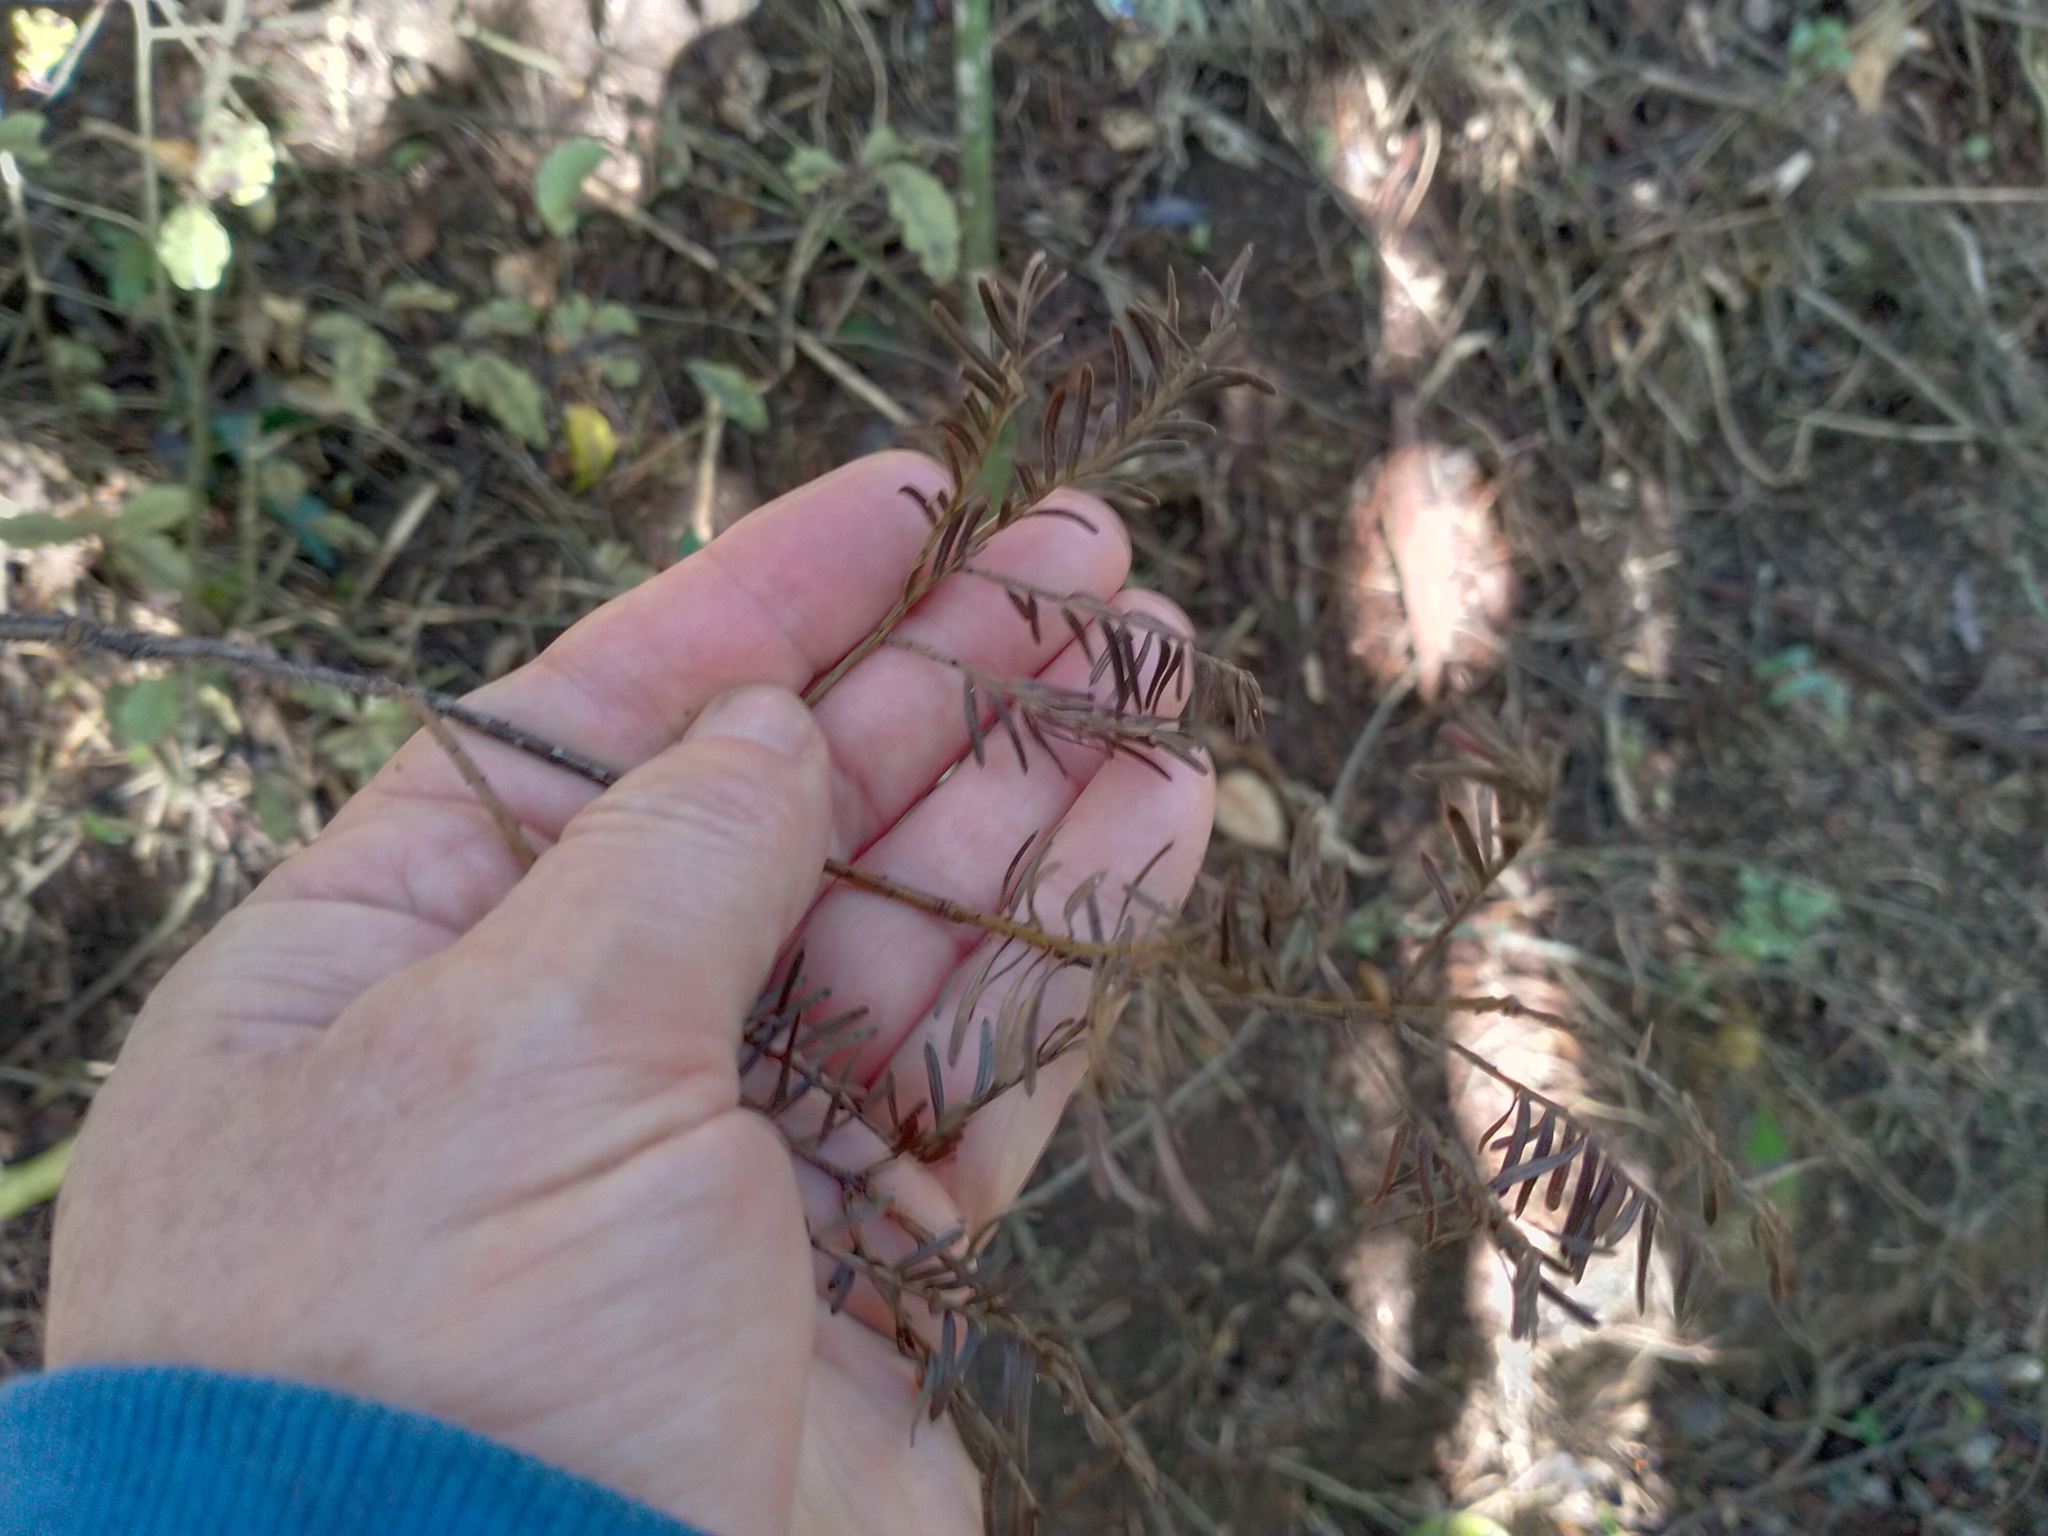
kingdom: Plantae
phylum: Tracheophyta
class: Pinopsida
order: Pinales
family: Podocarpaceae
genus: Prumnopitys
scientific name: Prumnopitys taxifolia
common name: Matai
